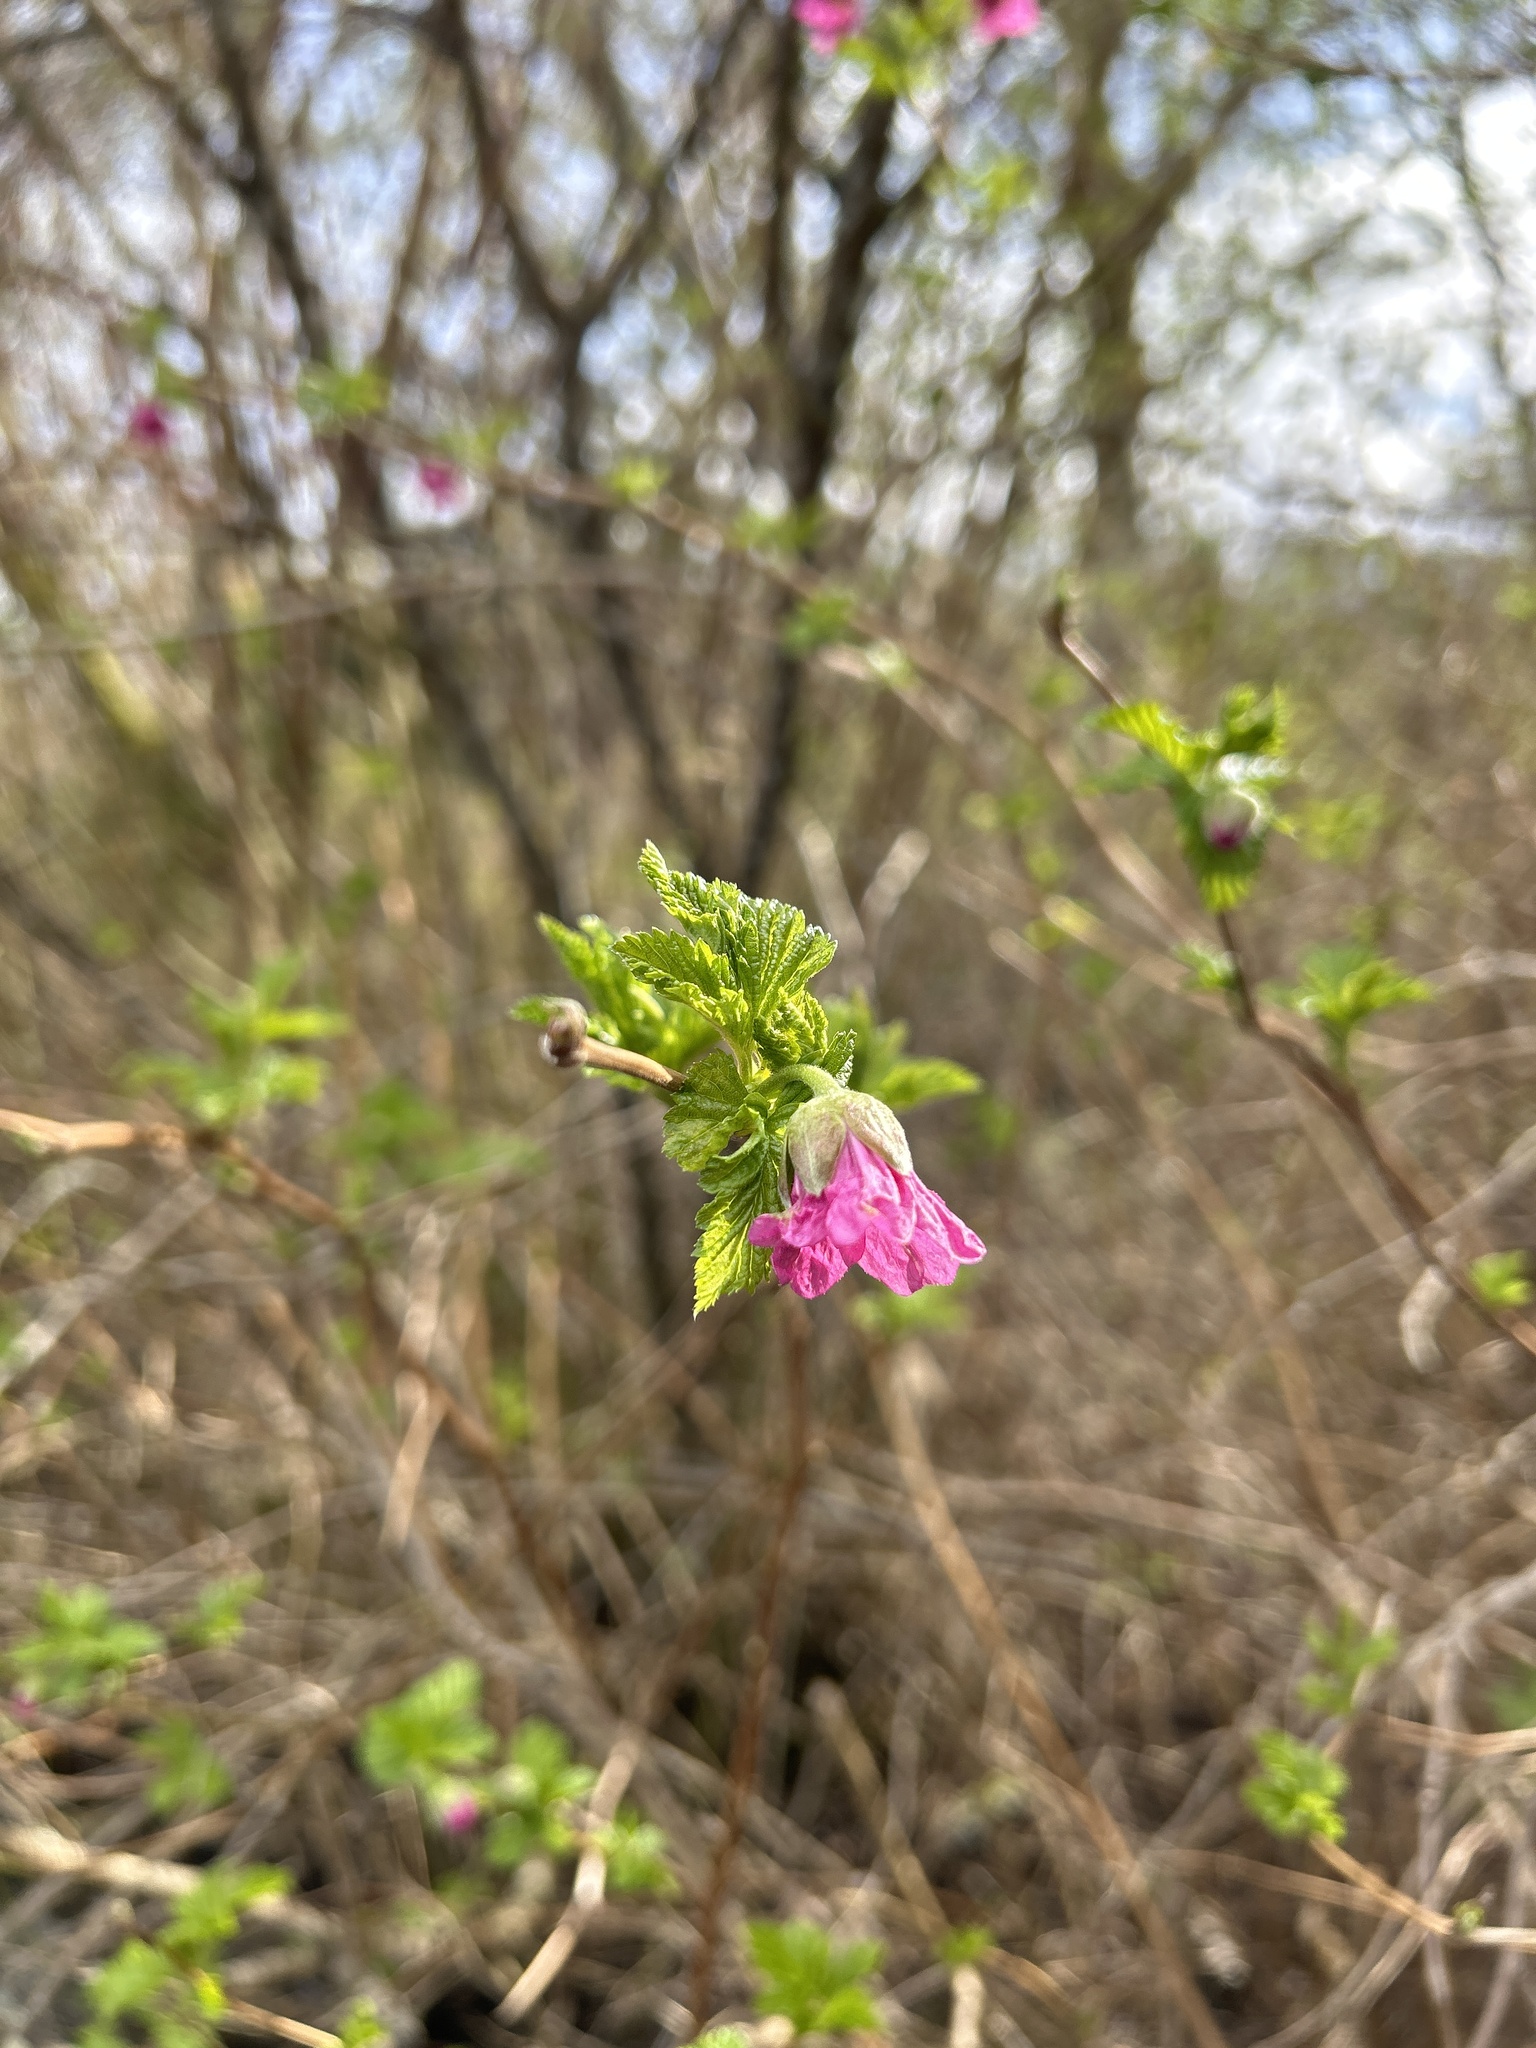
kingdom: Plantae
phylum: Tracheophyta
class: Magnoliopsida
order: Rosales
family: Rosaceae
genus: Rubus
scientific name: Rubus spectabilis
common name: Salmonberry
